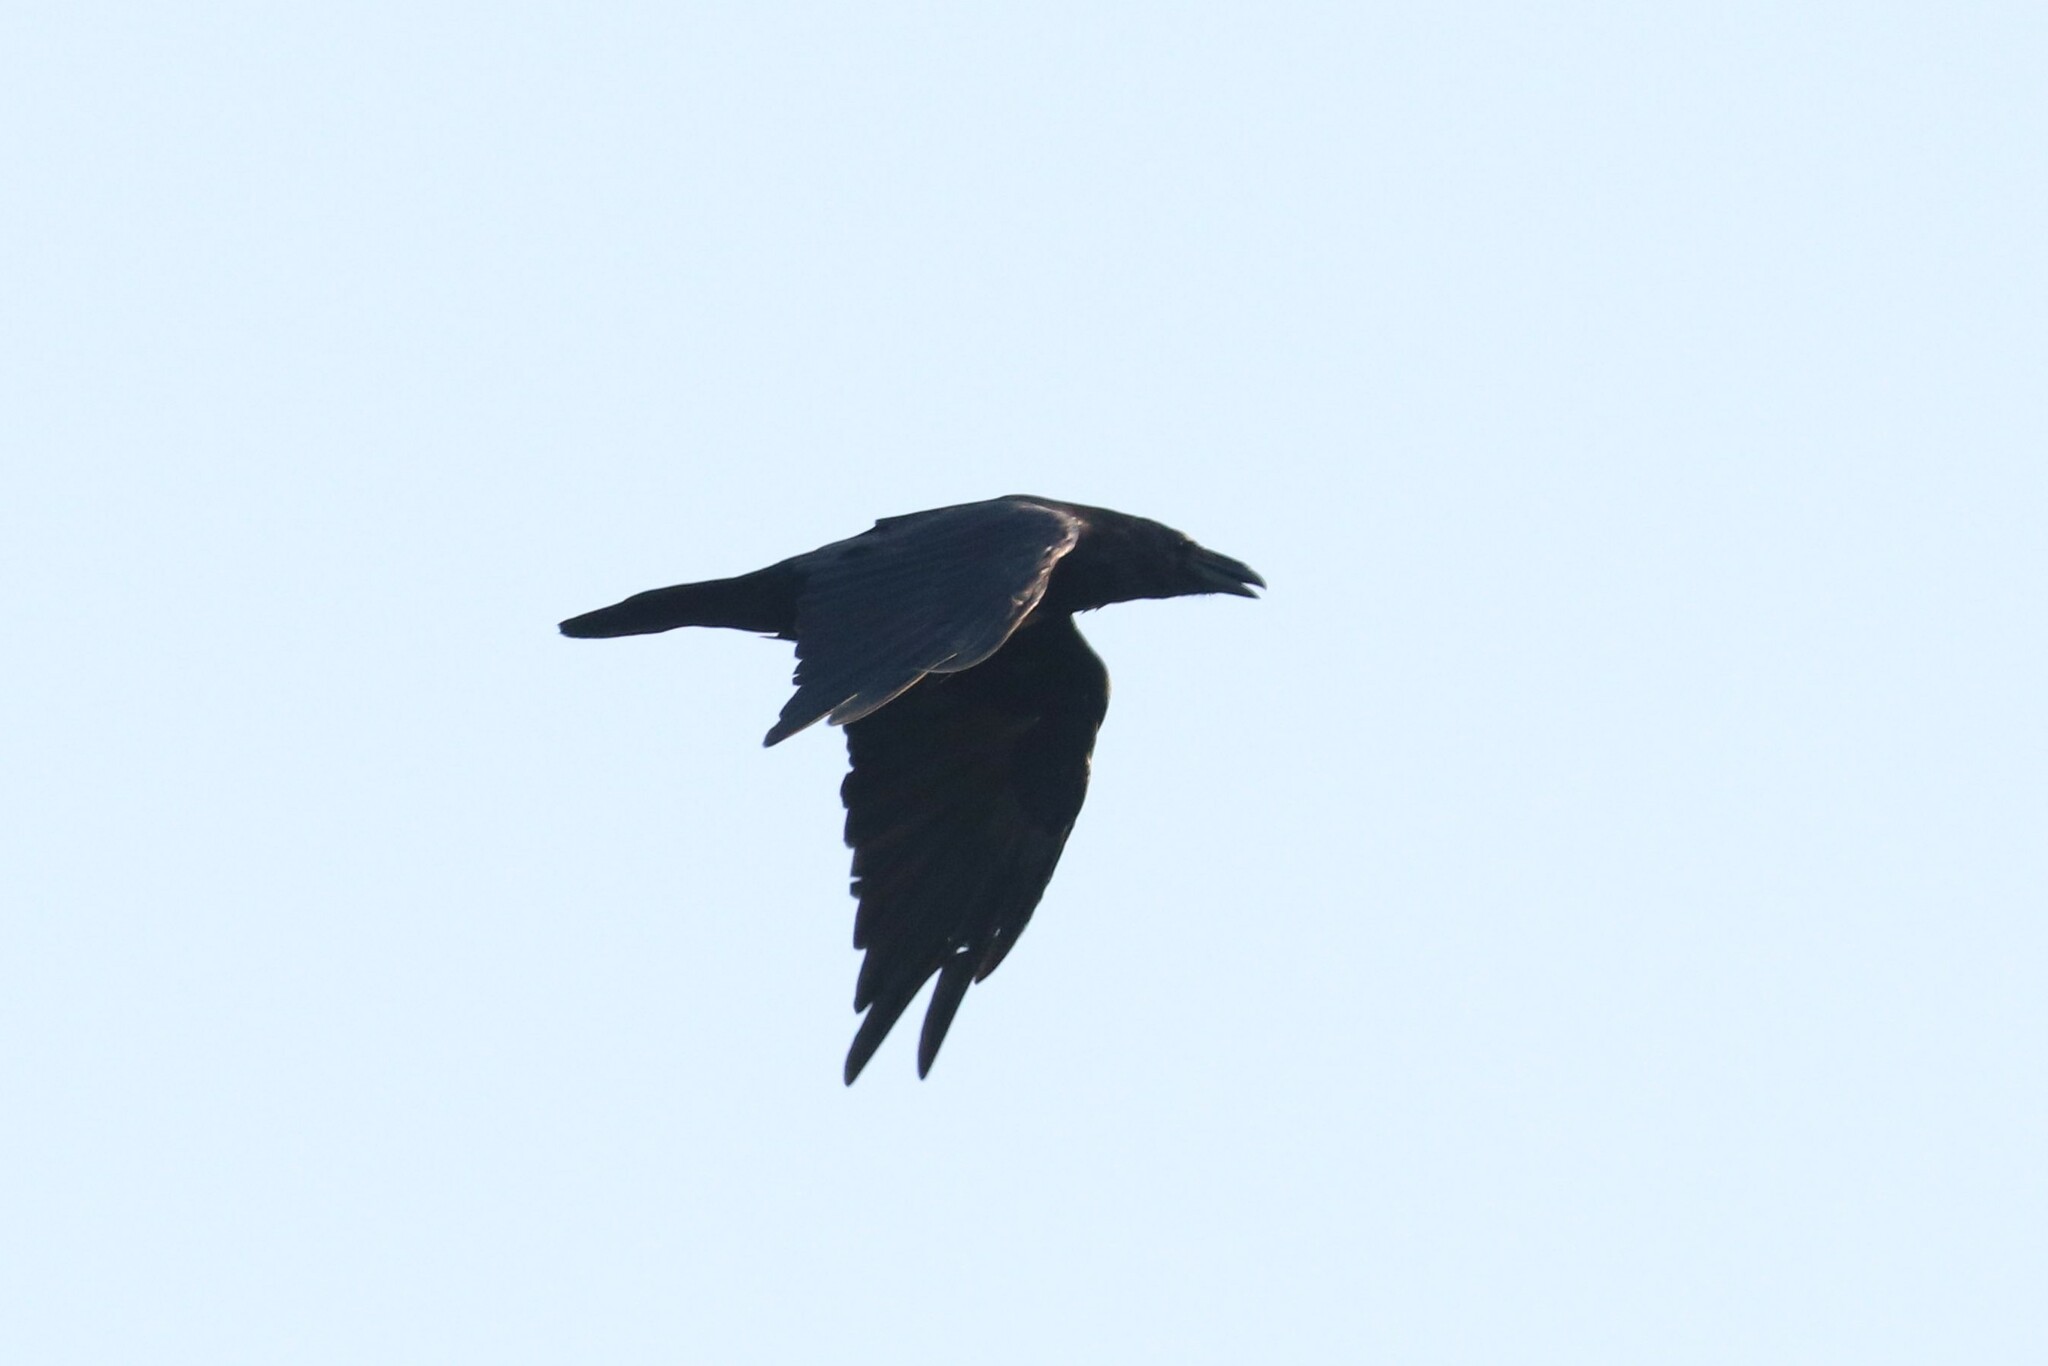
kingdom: Animalia
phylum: Chordata
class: Aves
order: Passeriformes
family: Corvidae
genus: Corvus
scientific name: Corvus corax
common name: Common raven
